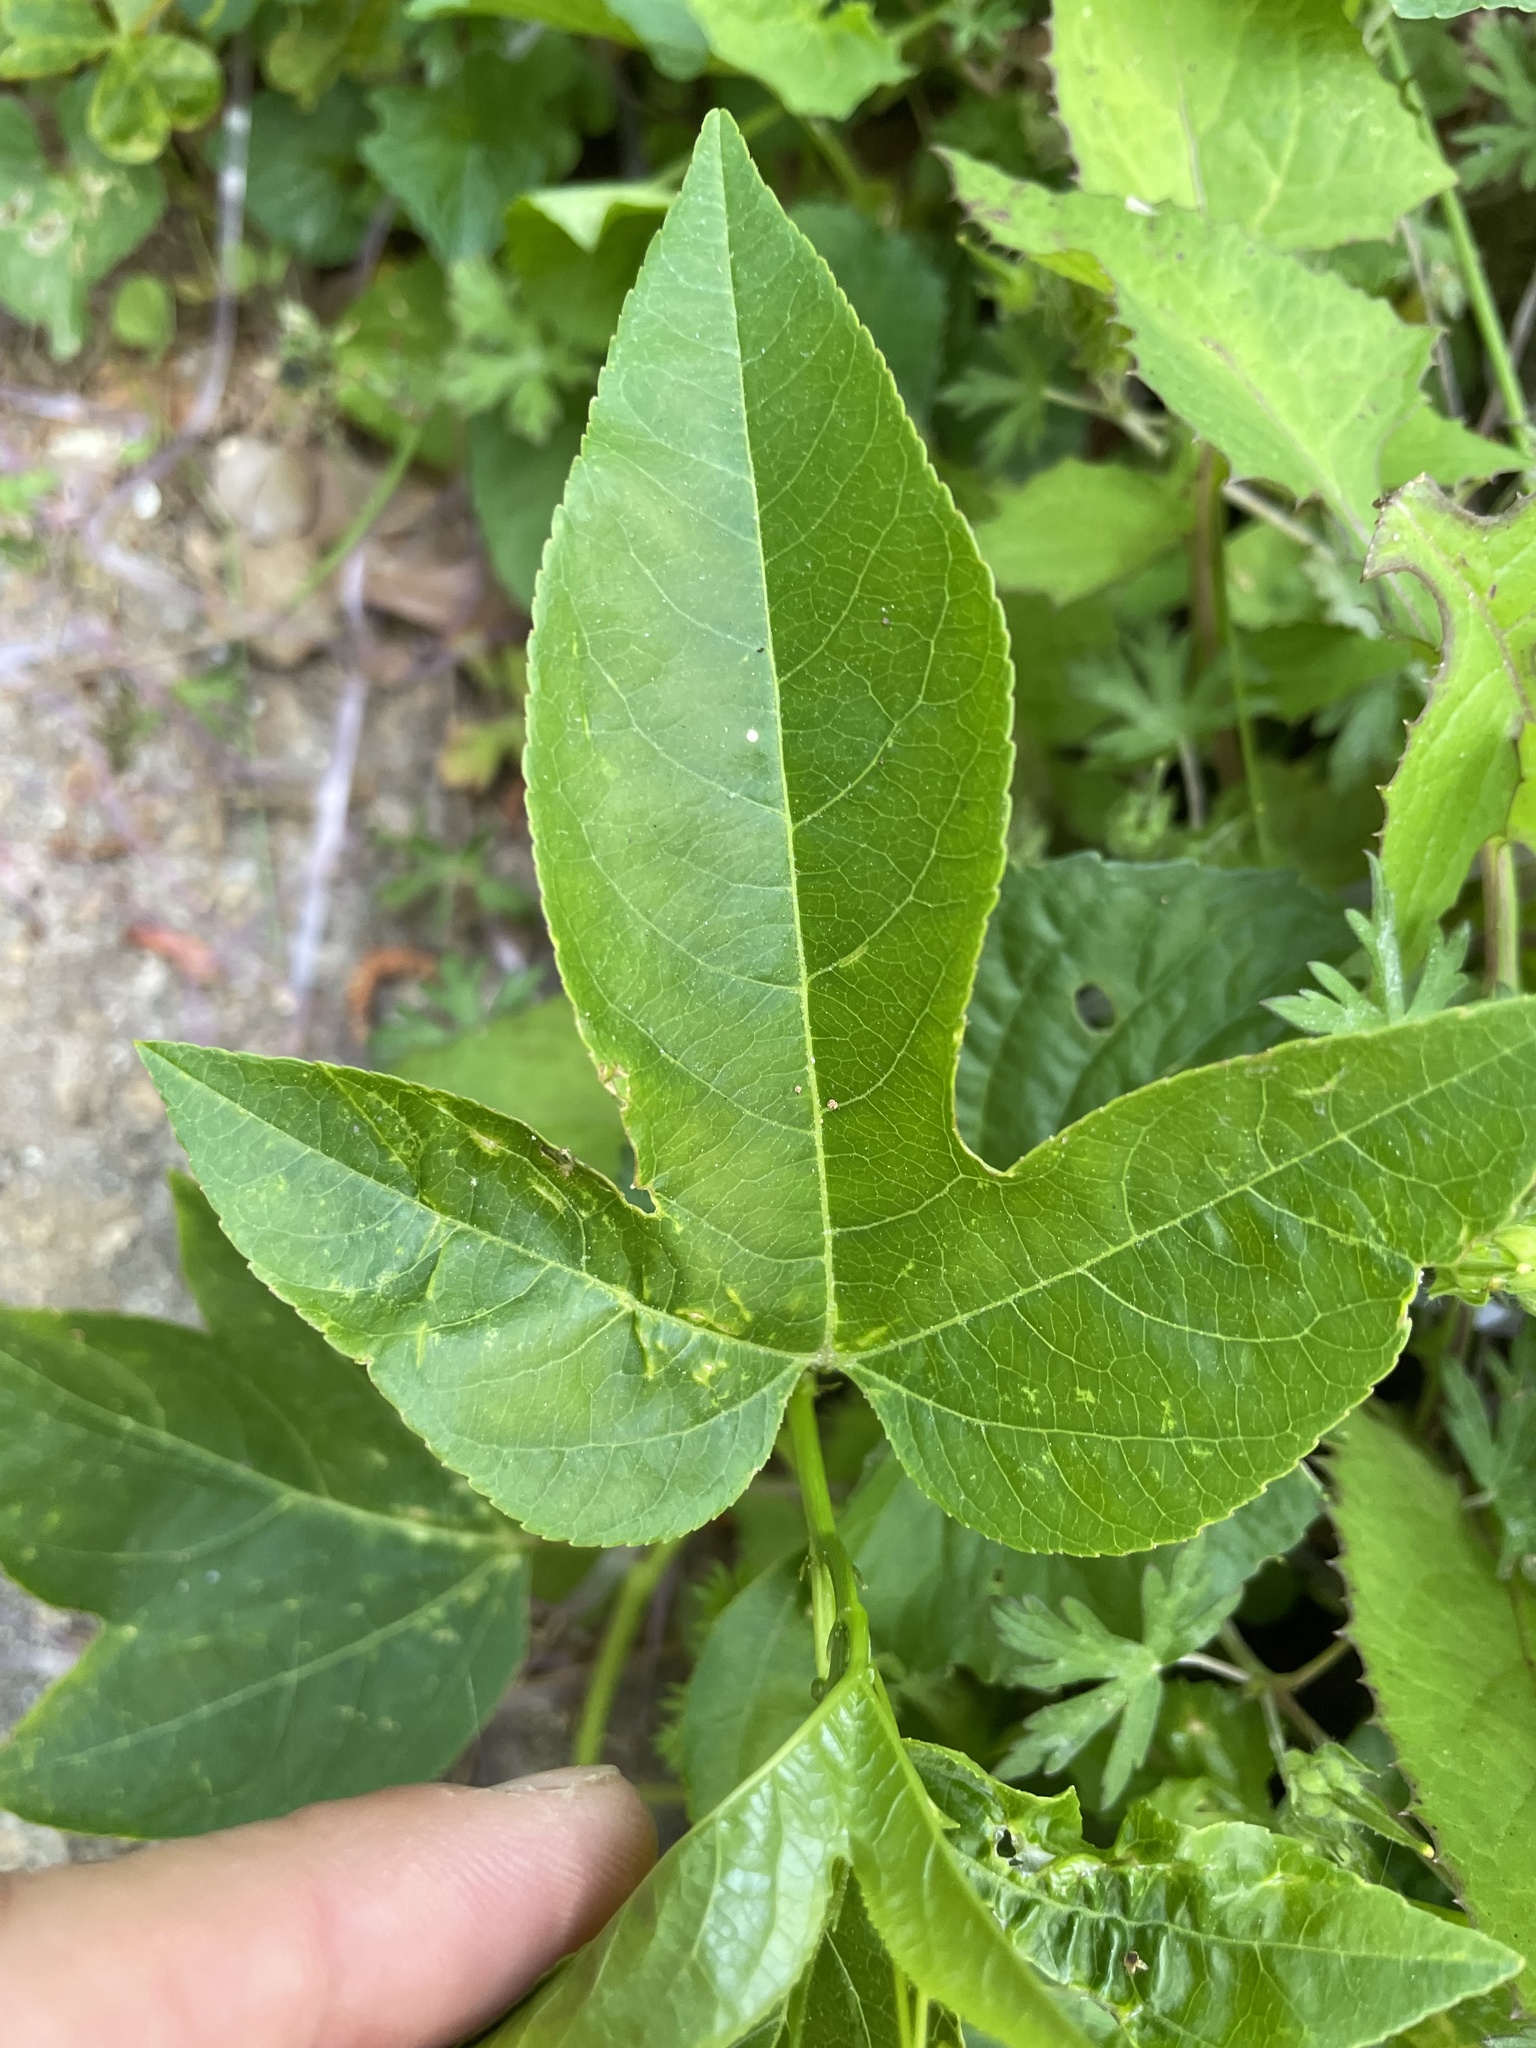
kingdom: Plantae
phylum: Tracheophyta
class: Magnoliopsida
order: Malpighiales
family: Passifloraceae
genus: Passiflora
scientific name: Passiflora incarnata
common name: Apricot-vine
